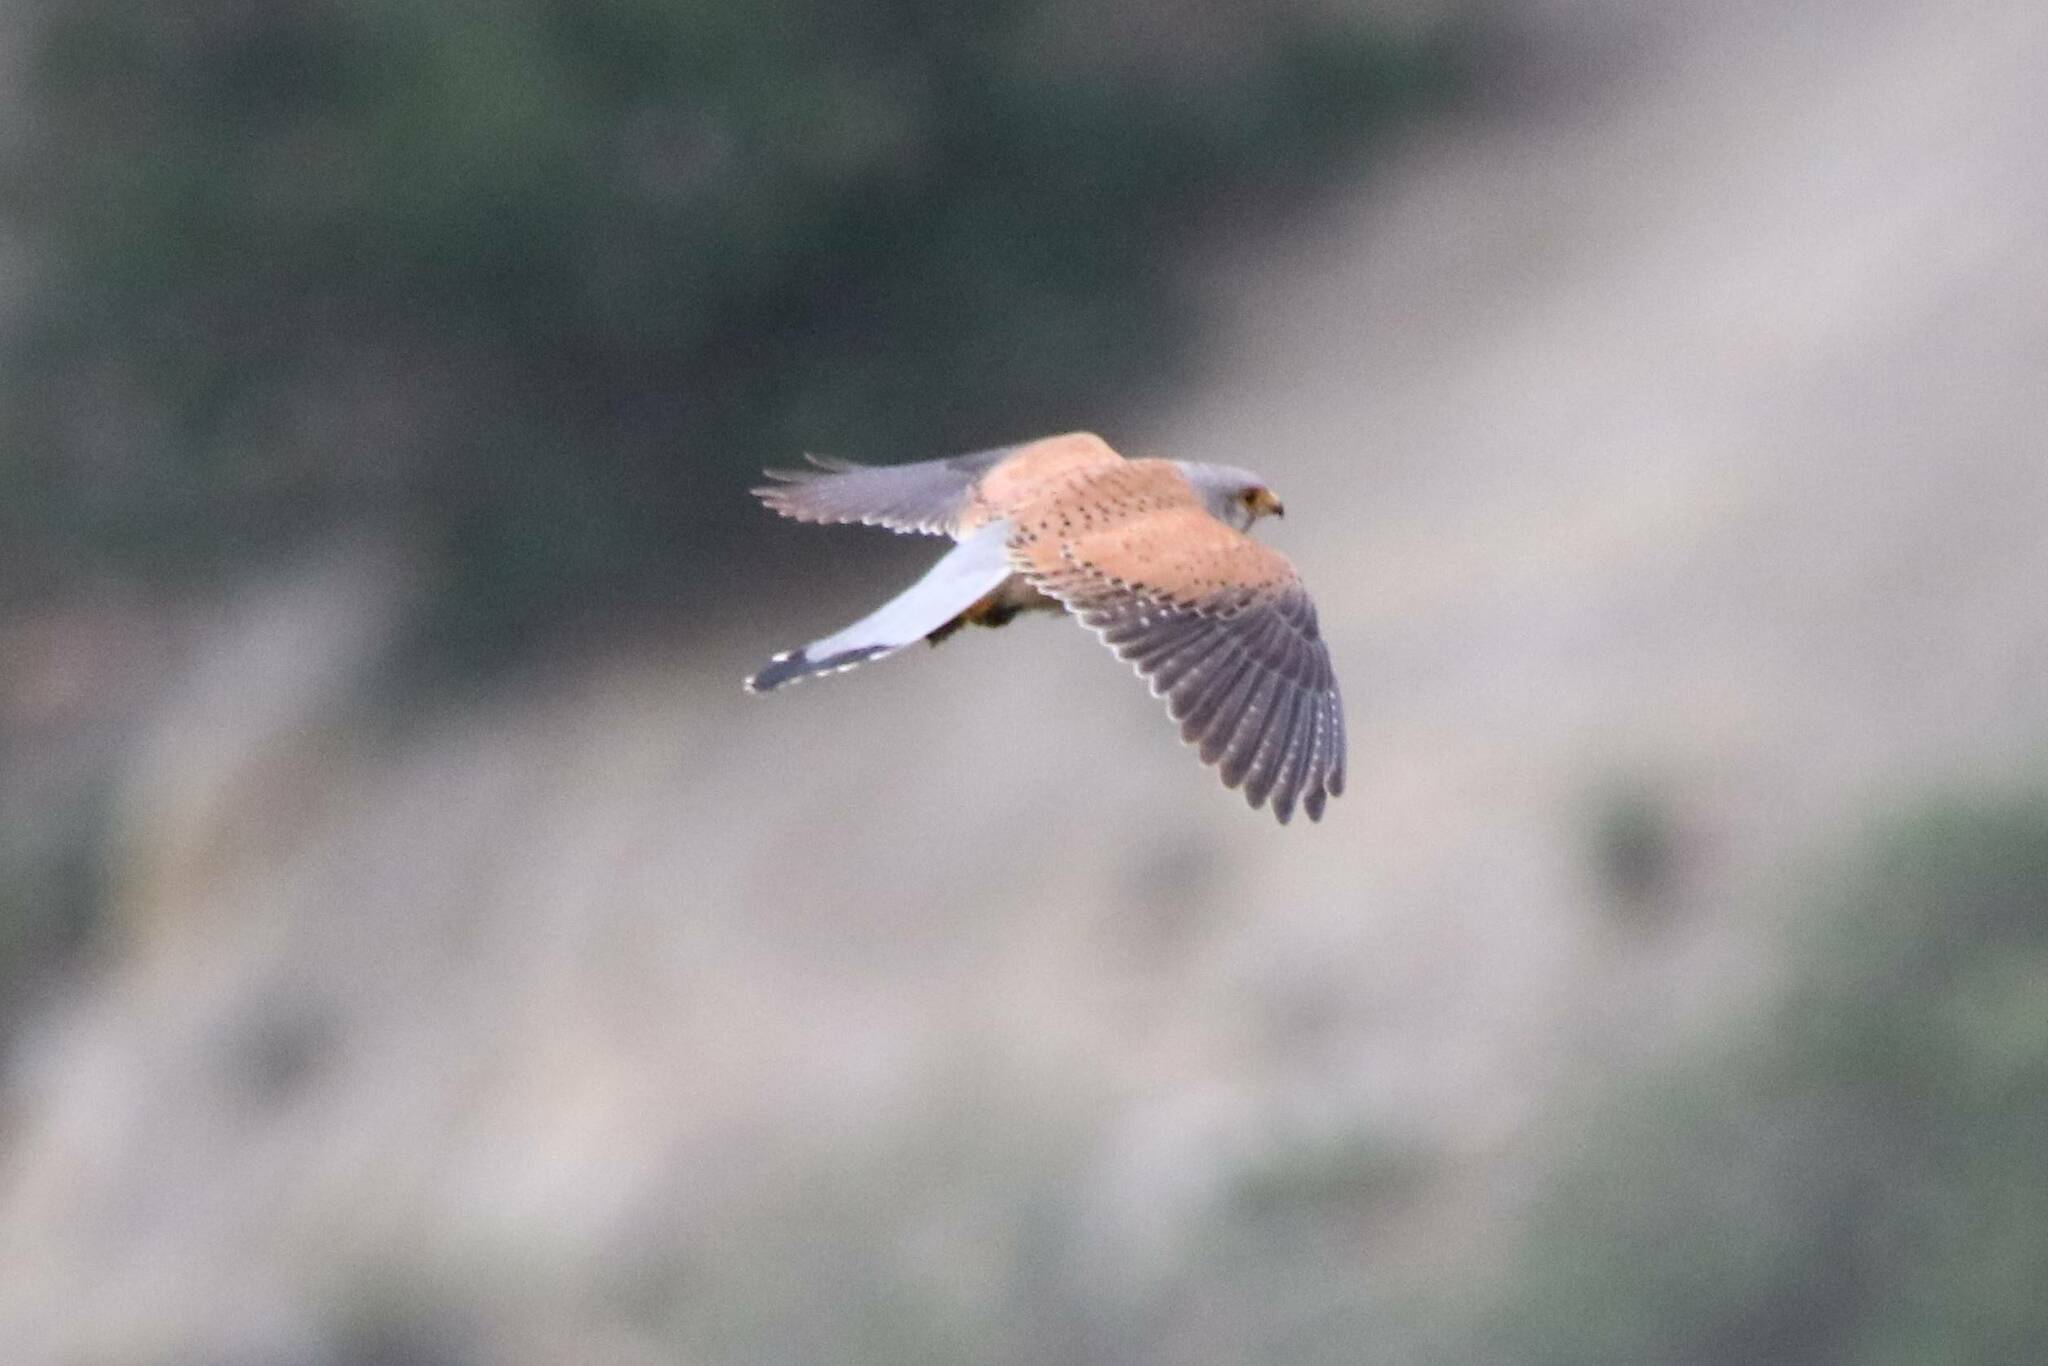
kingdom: Animalia
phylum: Chordata
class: Aves
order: Falconiformes
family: Falconidae
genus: Falco
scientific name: Falco tinnunculus
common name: Common kestrel
